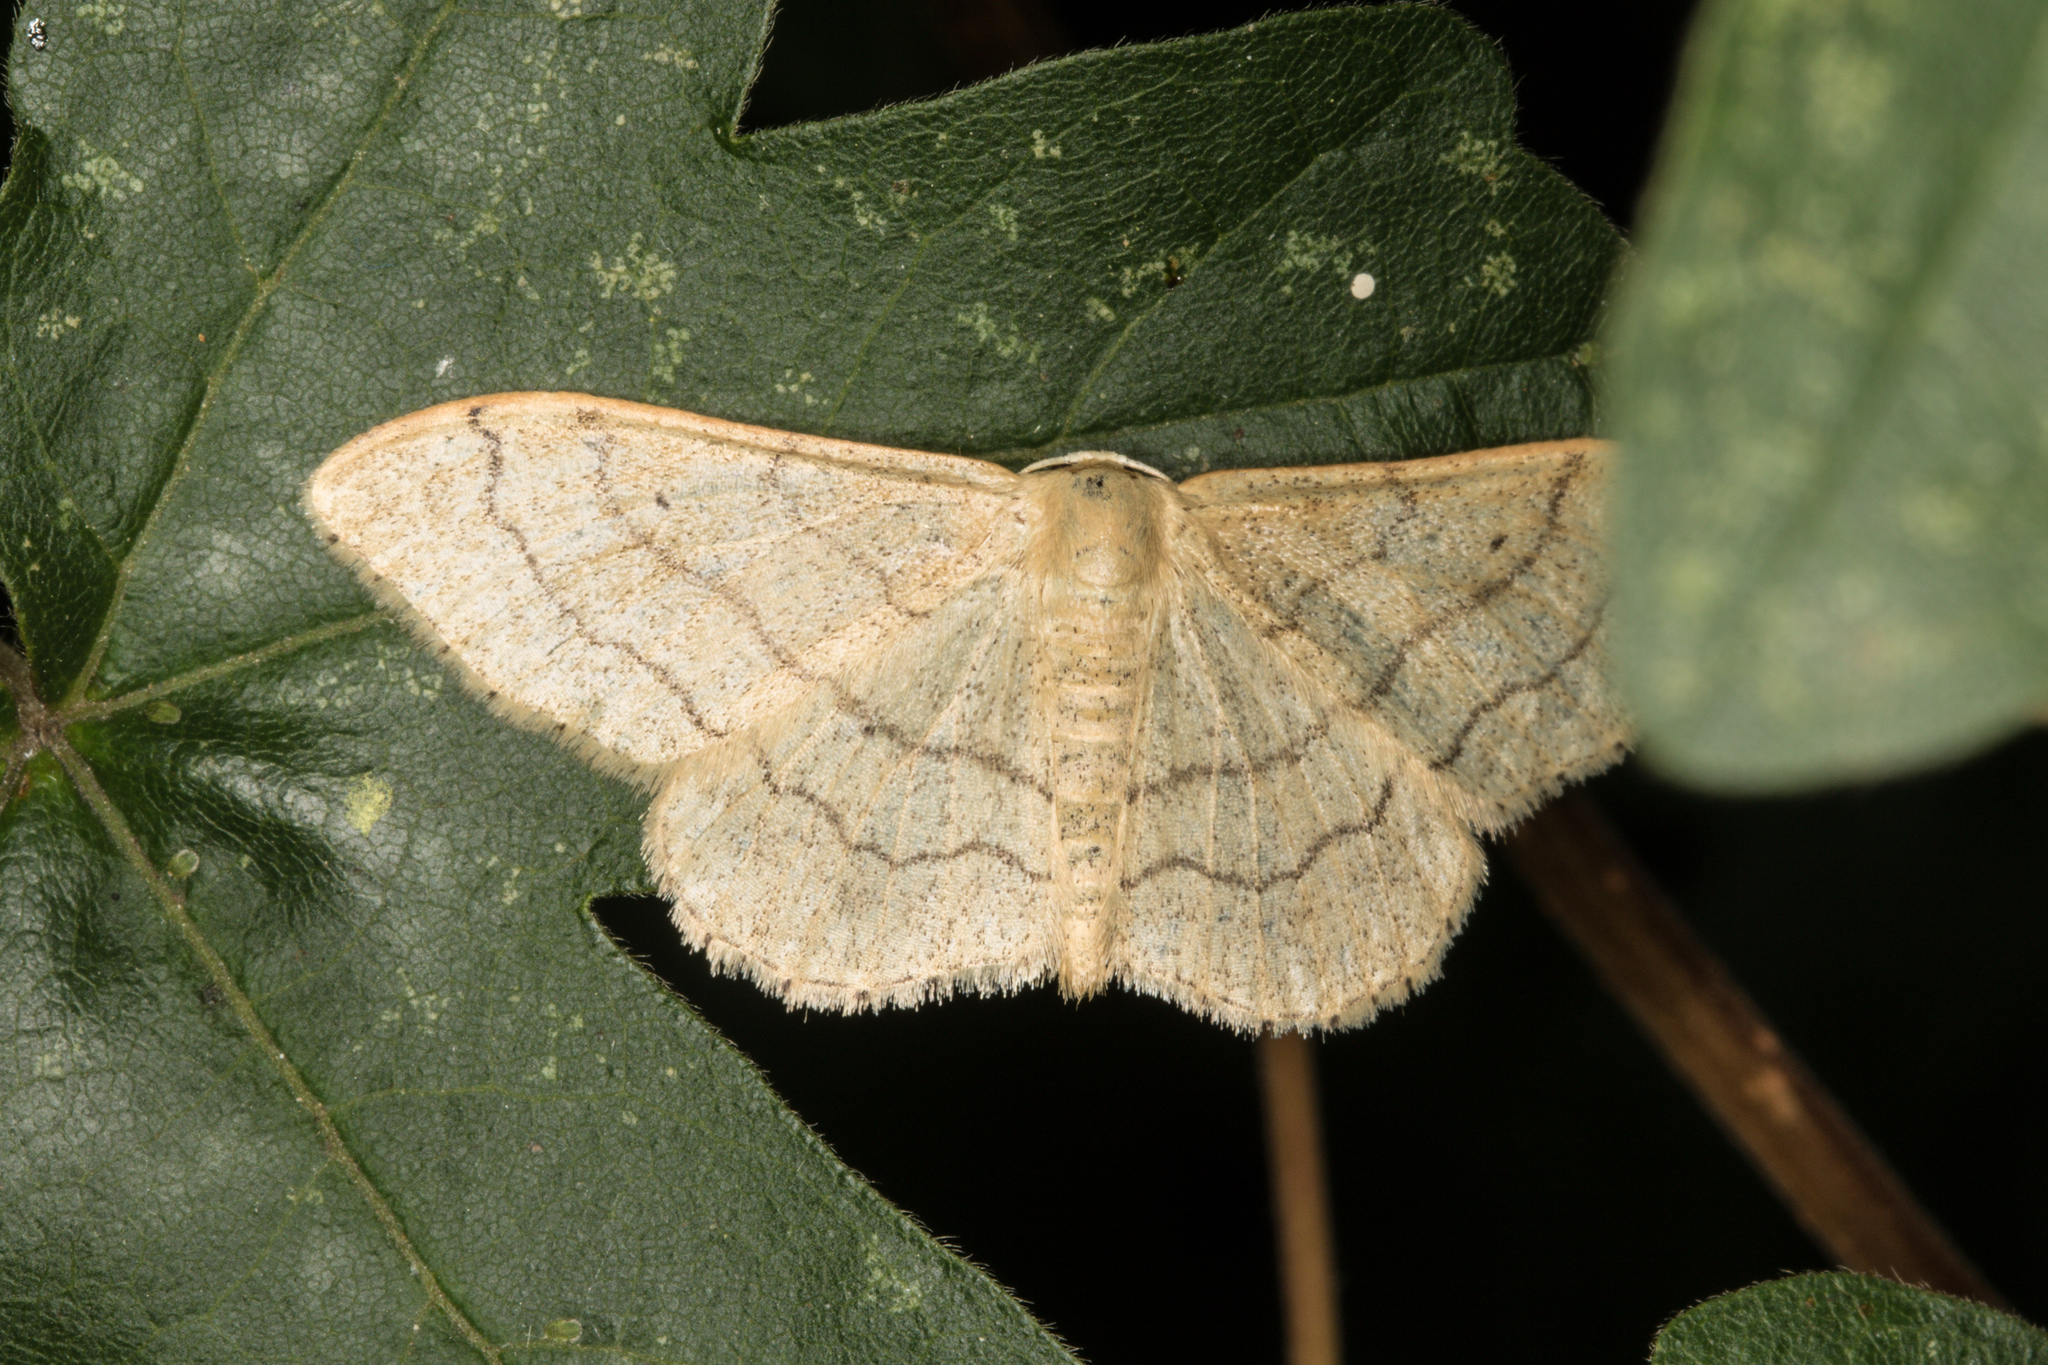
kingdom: Animalia
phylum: Arthropoda
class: Insecta
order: Lepidoptera
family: Geometridae
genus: Idaea
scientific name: Idaea aversata
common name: Riband wave
